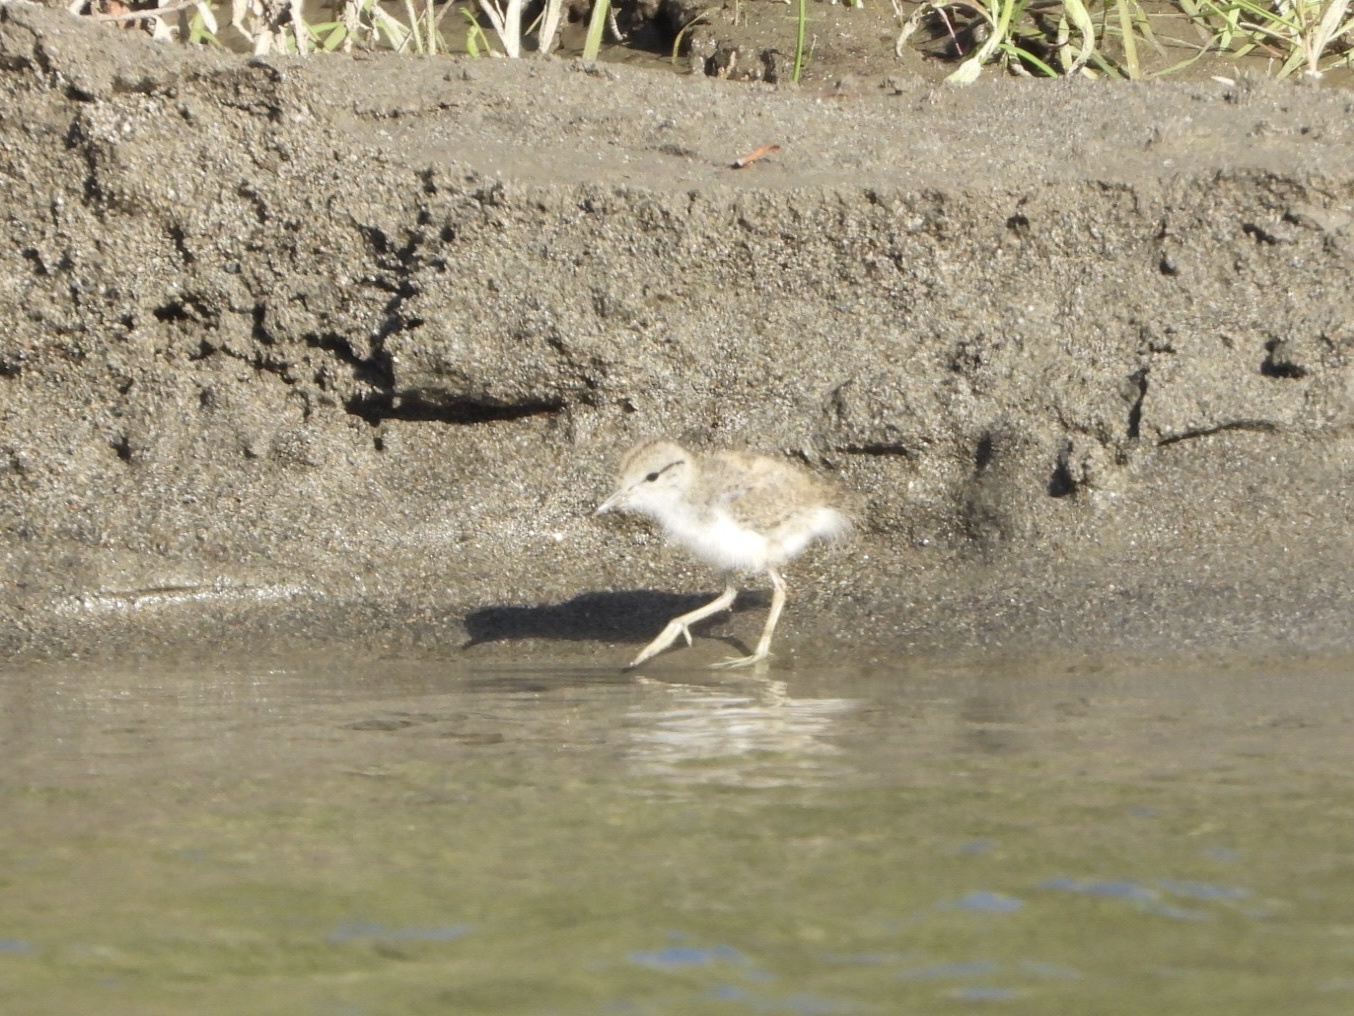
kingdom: Animalia
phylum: Chordata
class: Aves
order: Charadriiformes
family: Scolopacidae
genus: Actitis
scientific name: Actitis macularius
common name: Spotted sandpiper
